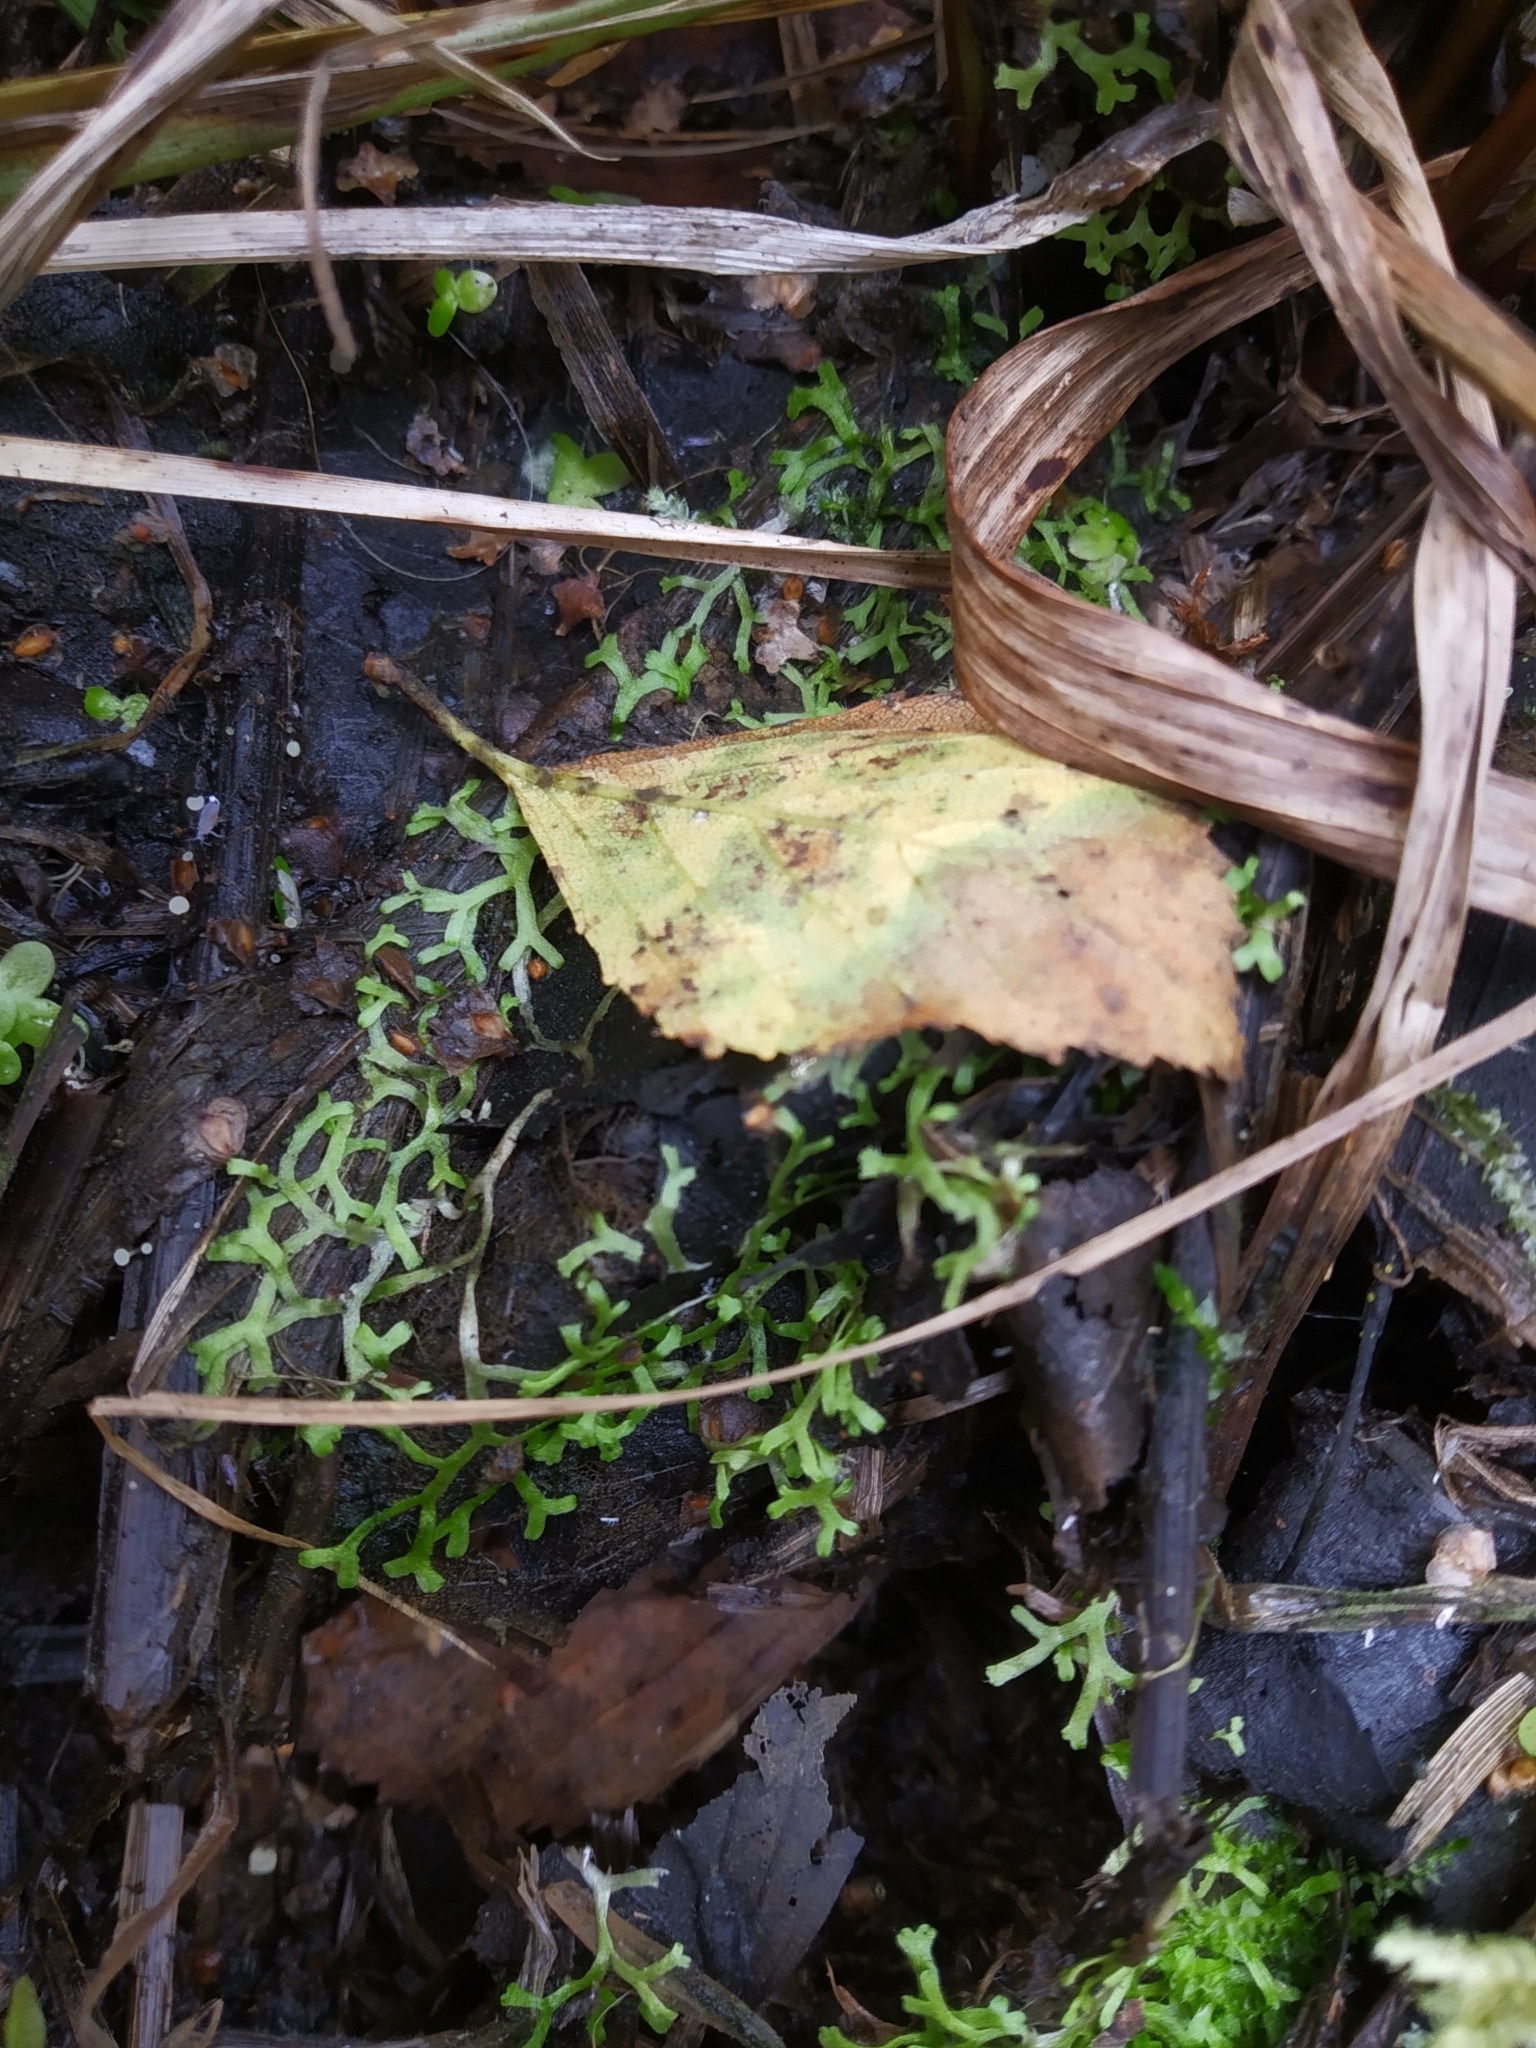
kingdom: Plantae
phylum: Marchantiophyta
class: Marchantiopsida
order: Marchantiales
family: Ricciaceae
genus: Riccia
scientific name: Riccia fluitans
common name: Floating crystalwort
